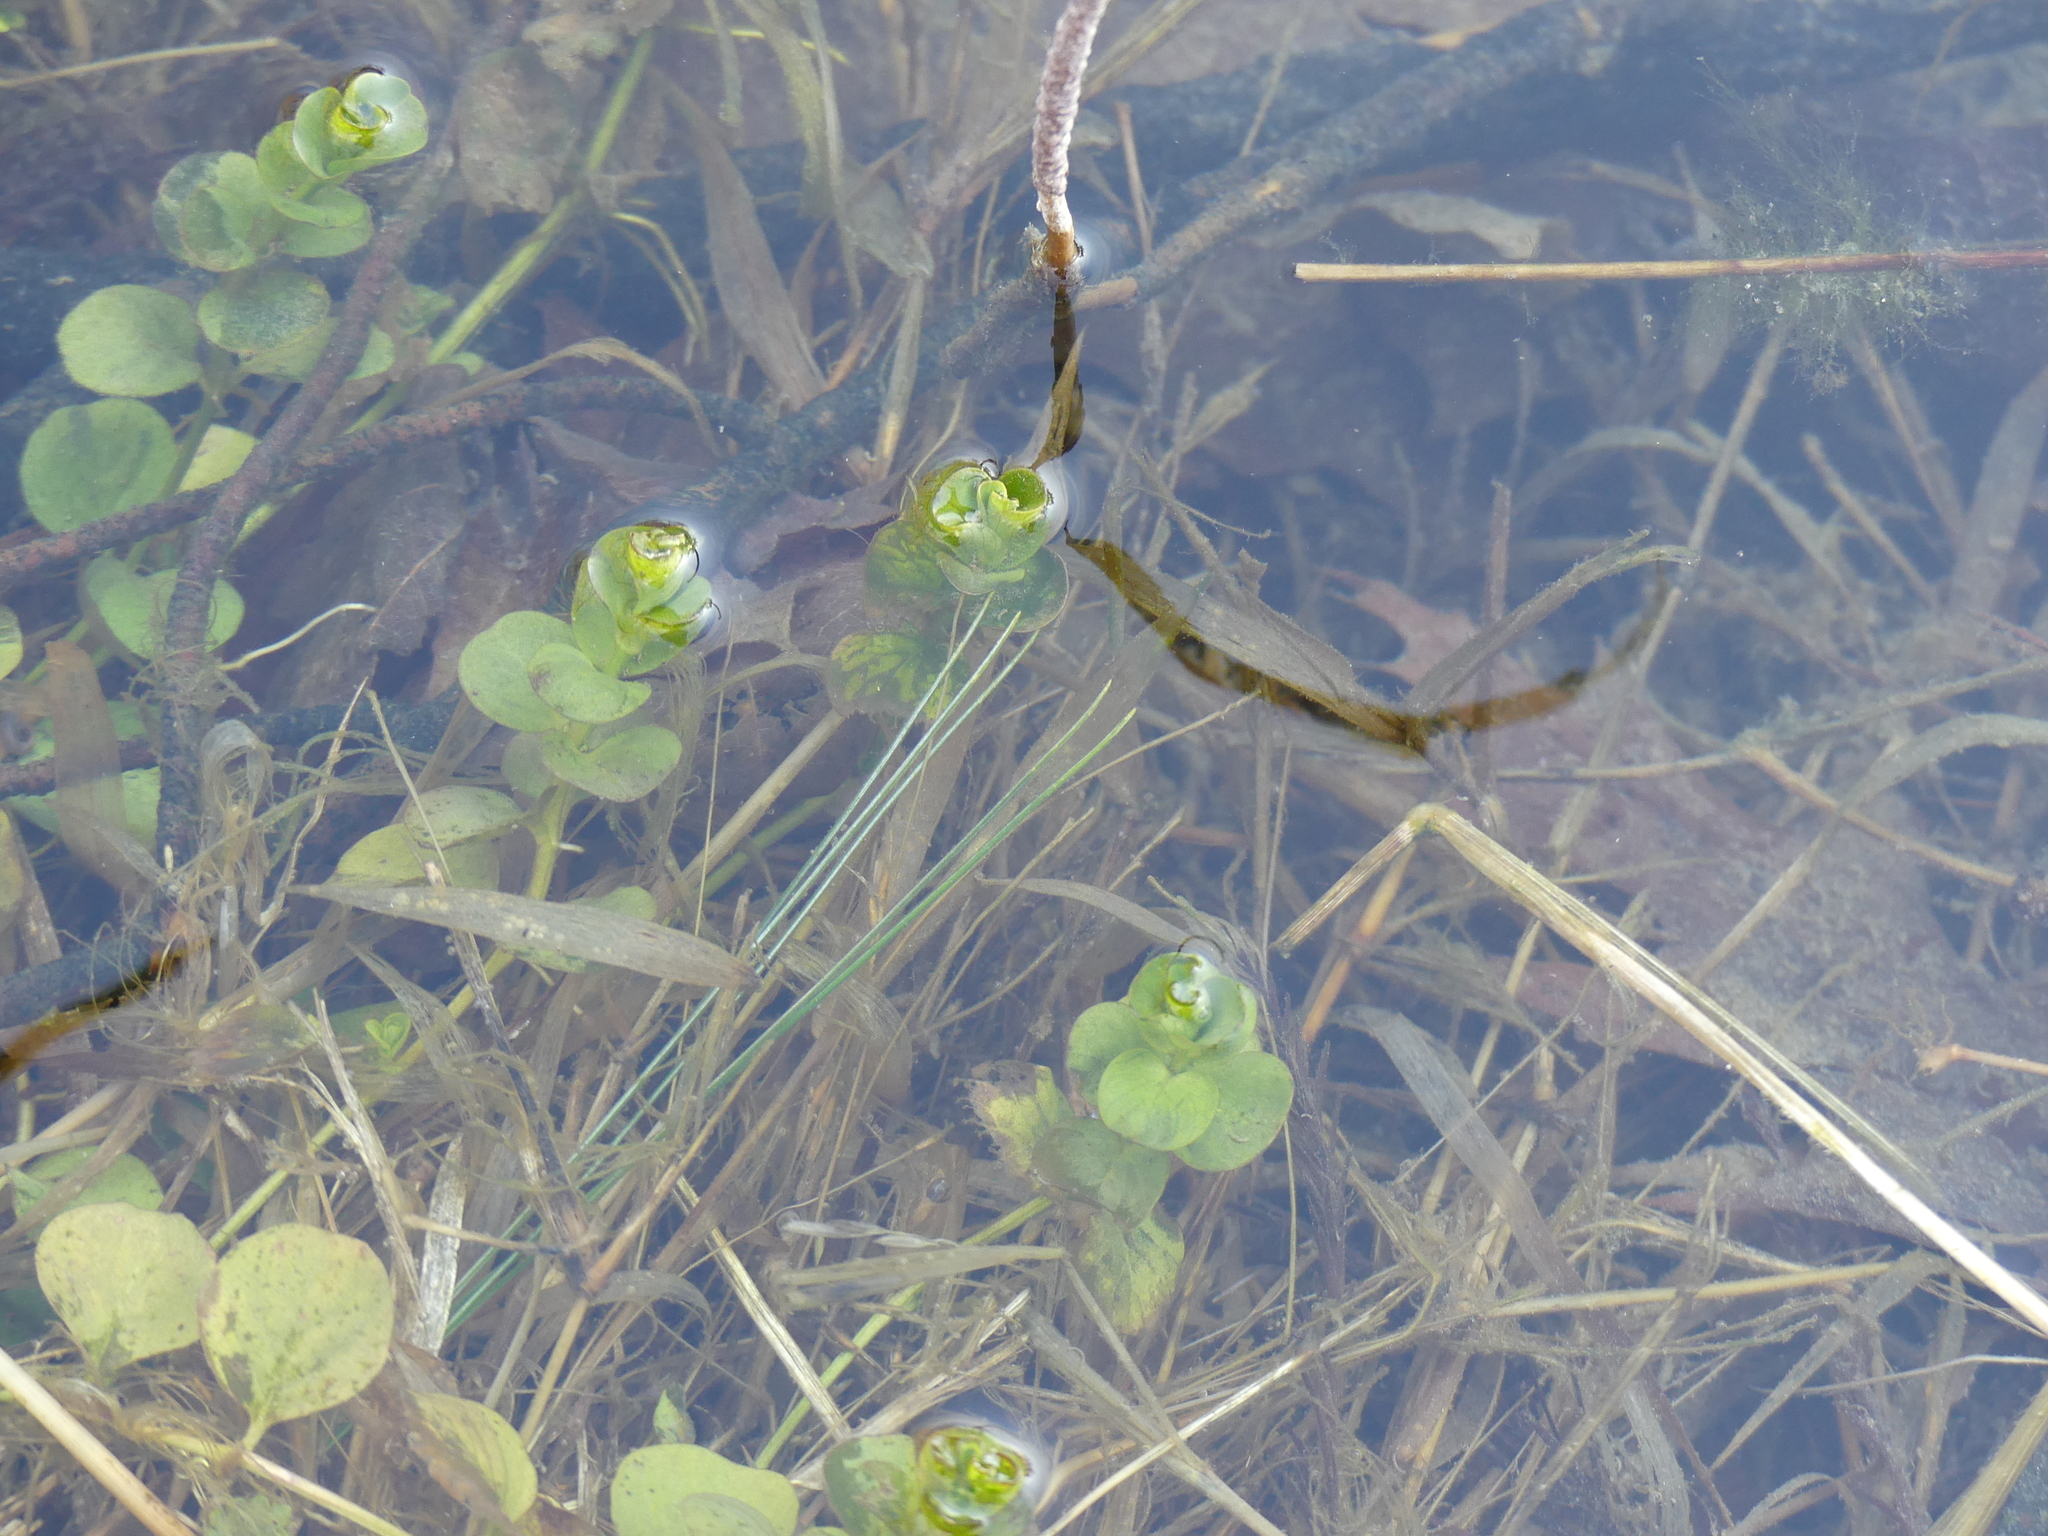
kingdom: Plantae
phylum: Tracheophyta
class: Magnoliopsida
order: Ericales
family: Primulaceae
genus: Lysimachia
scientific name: Lysimachia nummularia
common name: Moneywort
